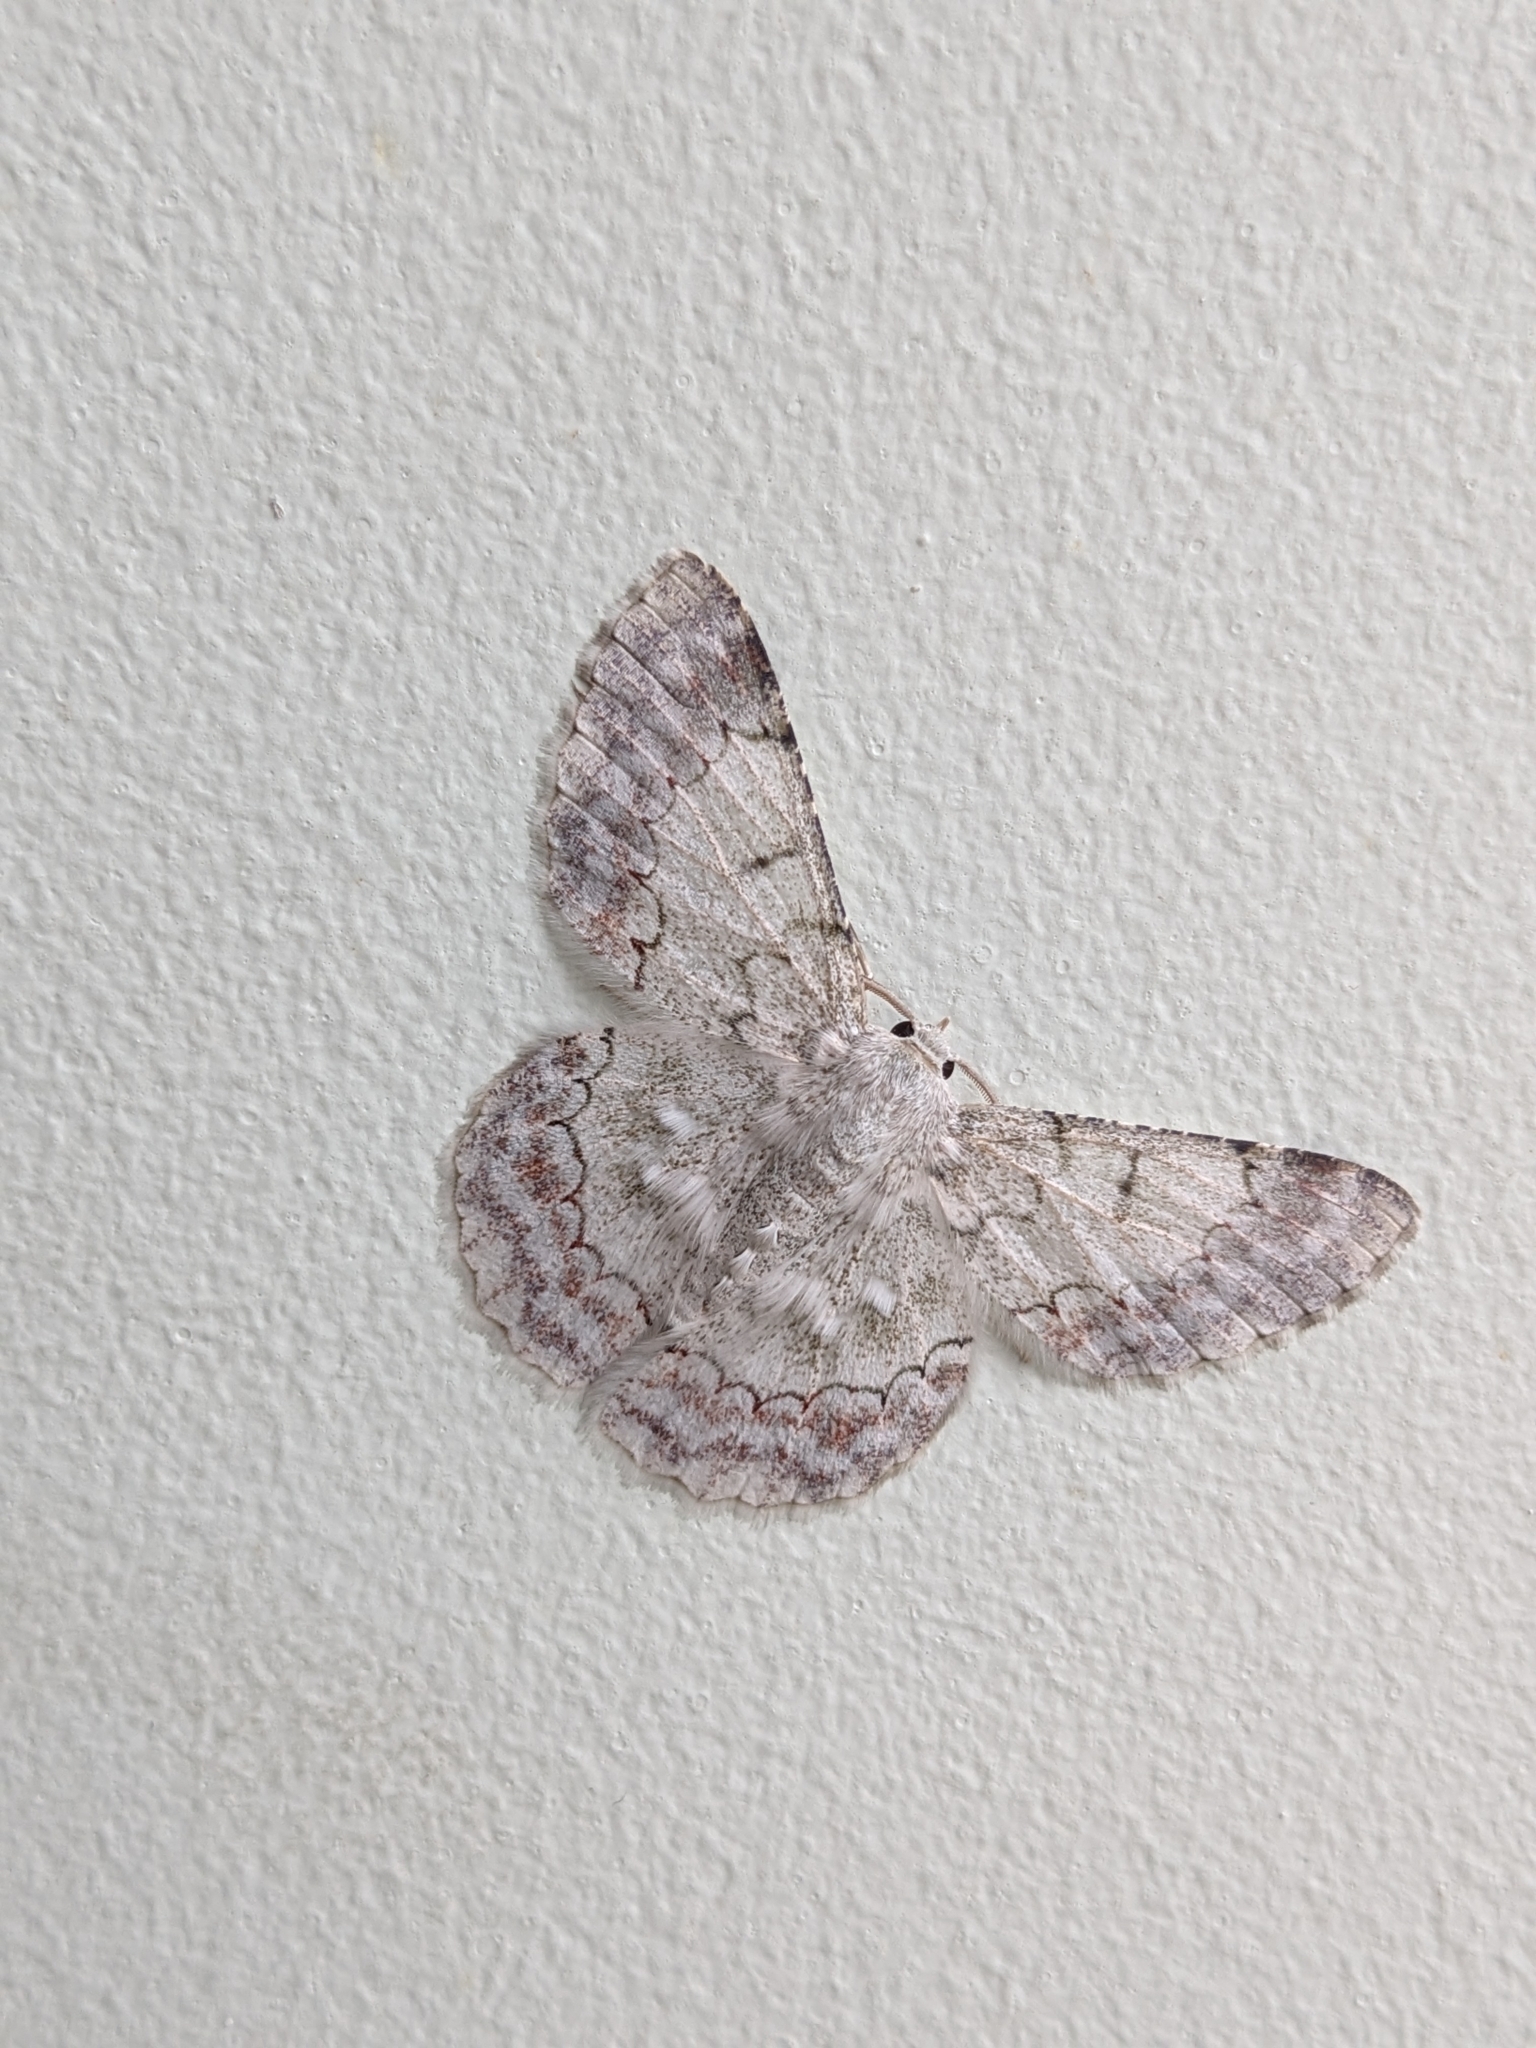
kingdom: Animalia
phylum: Arthropoda
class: Insecta
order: Lepidoptera
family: Geometridae
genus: Pingasa
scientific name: Pingasa ruginaria
